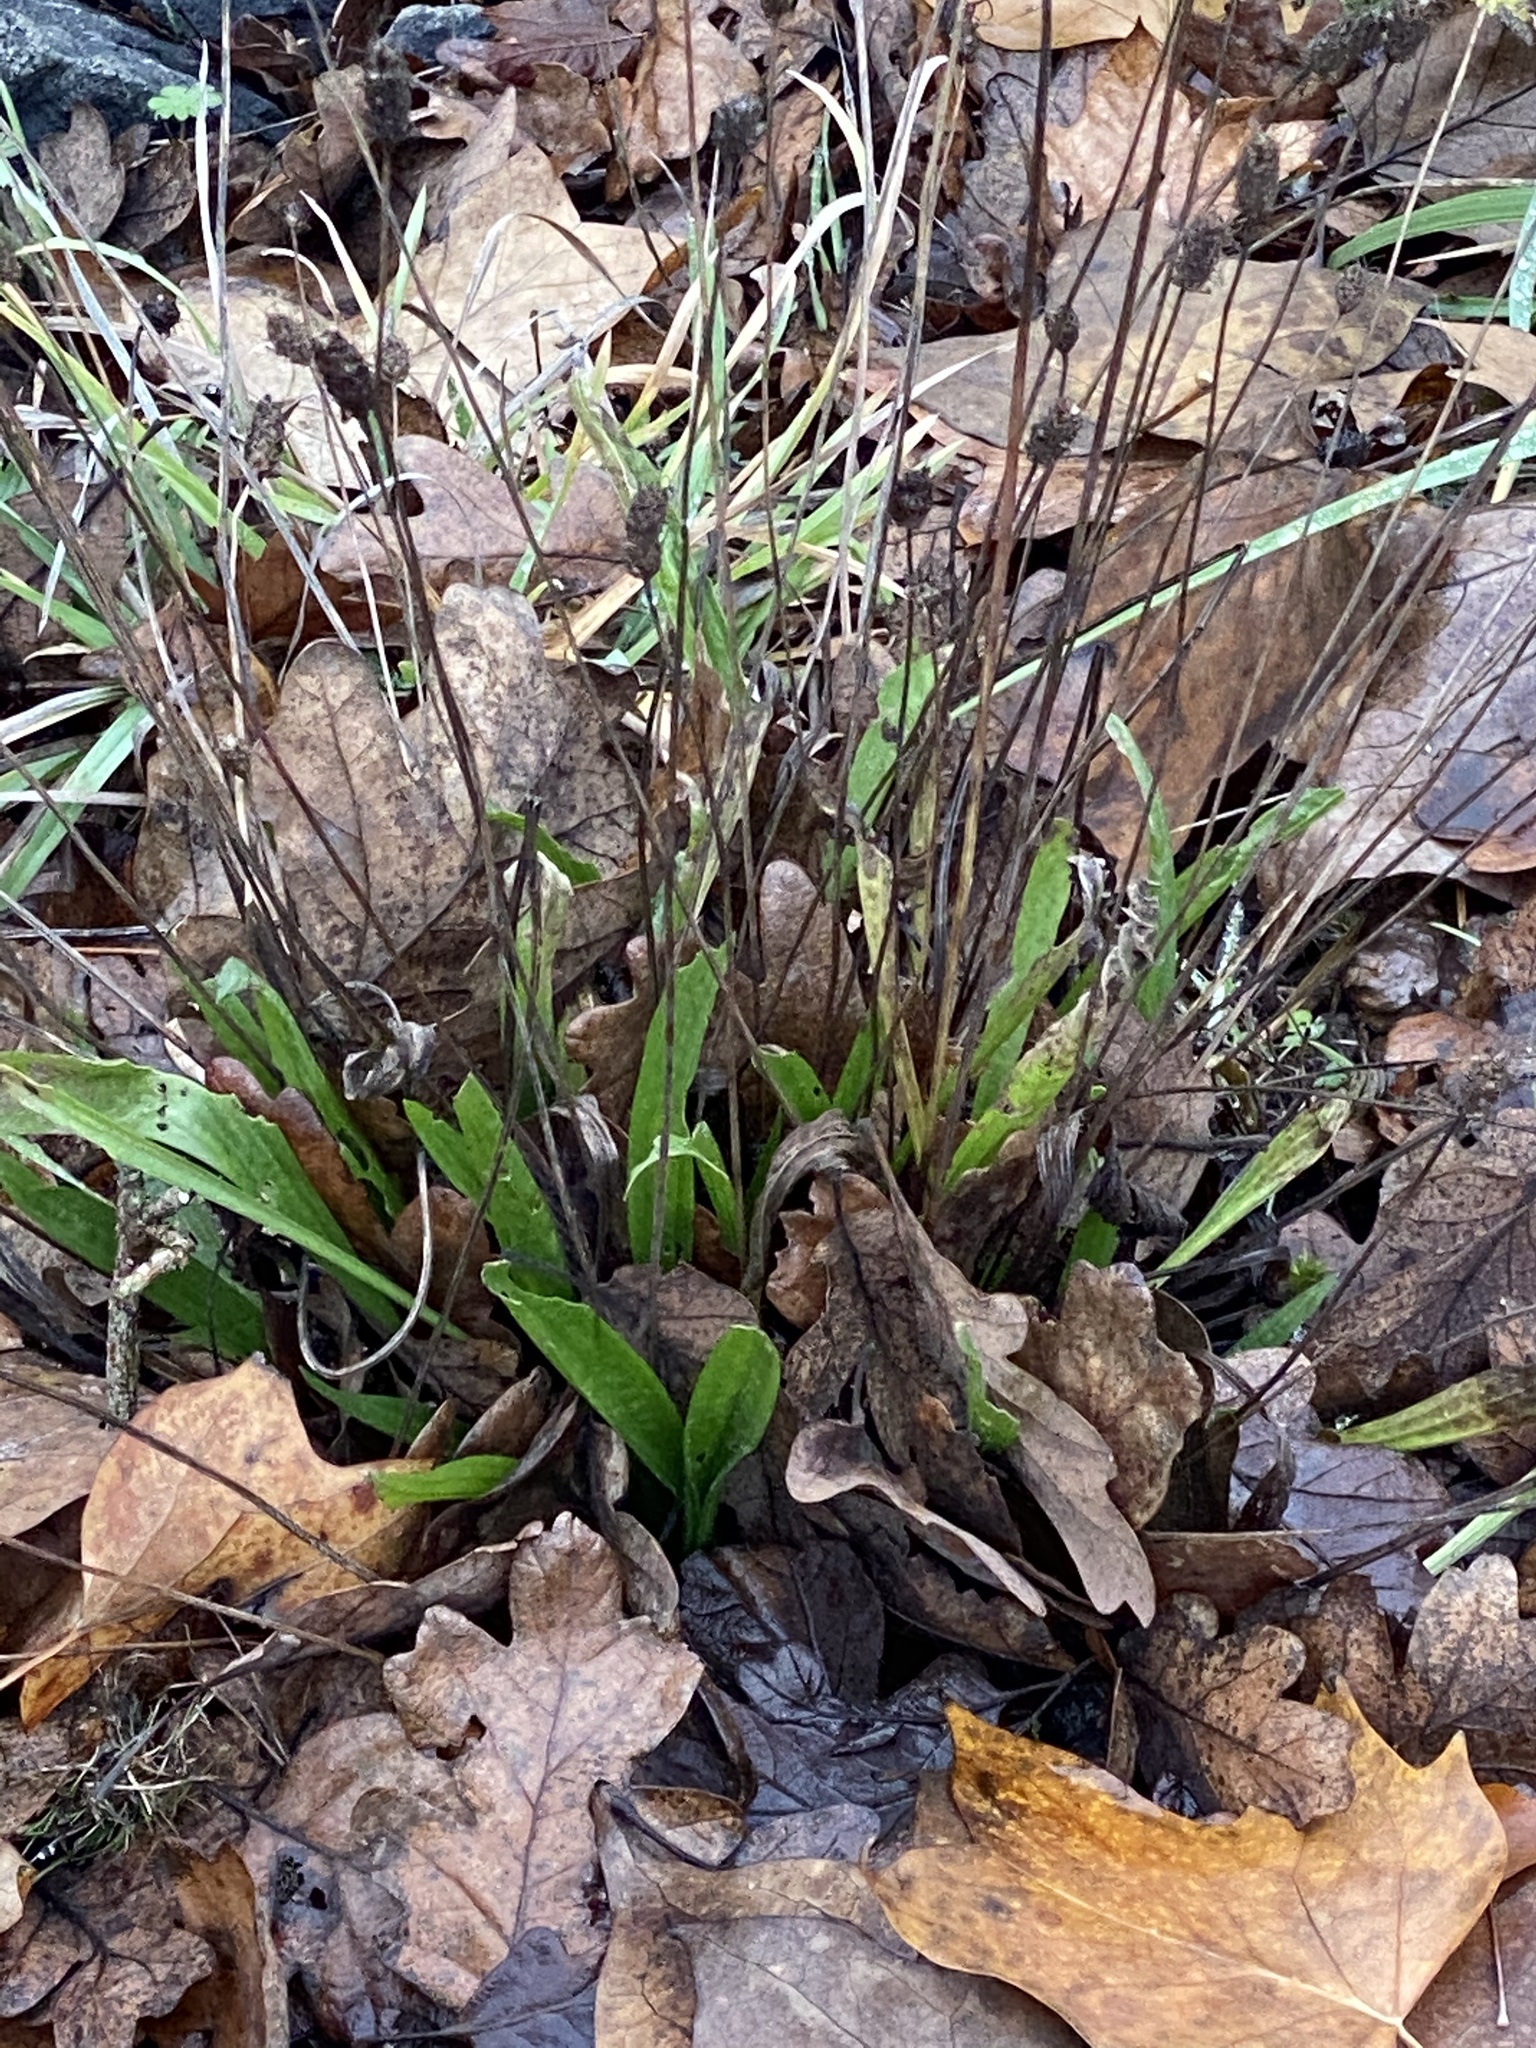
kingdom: Plantae
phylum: Tracheophyta
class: Magnoliopsida
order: Lamiales
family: Plantaginaceae
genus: Plantago
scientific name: Plantago lanceolata
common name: Ribwort plantain
